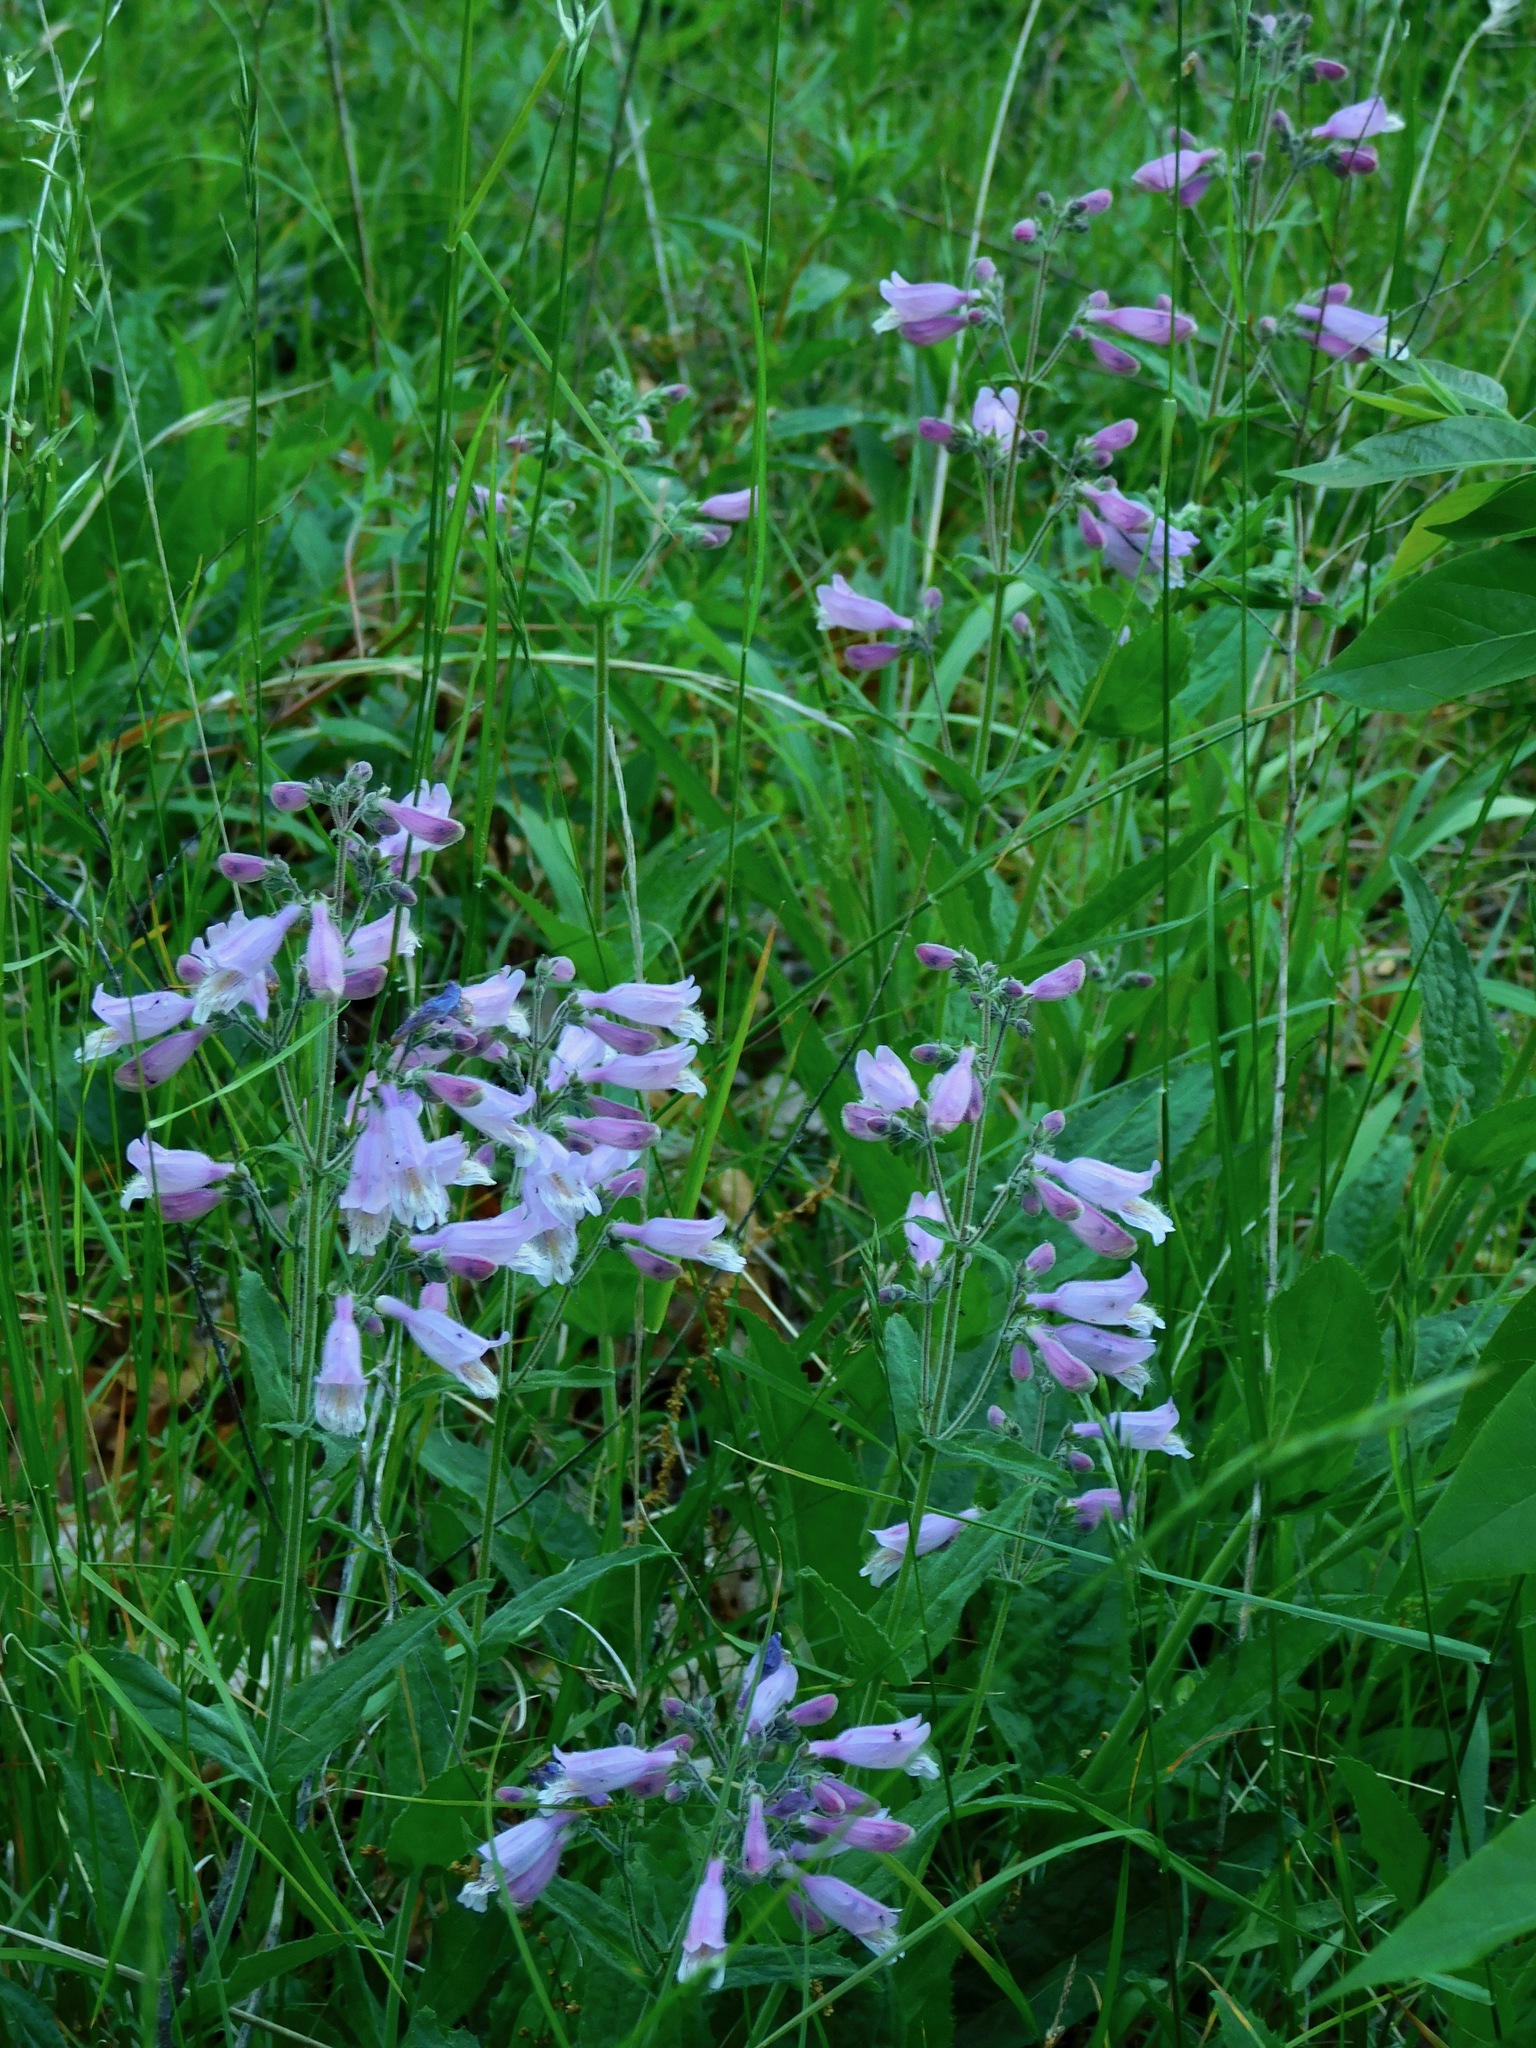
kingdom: Plantae
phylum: Tracheophyta
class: Magnoliopsida
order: Lamiales
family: Plantaginaceae
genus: Penstemon
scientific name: Penstemon canescens
